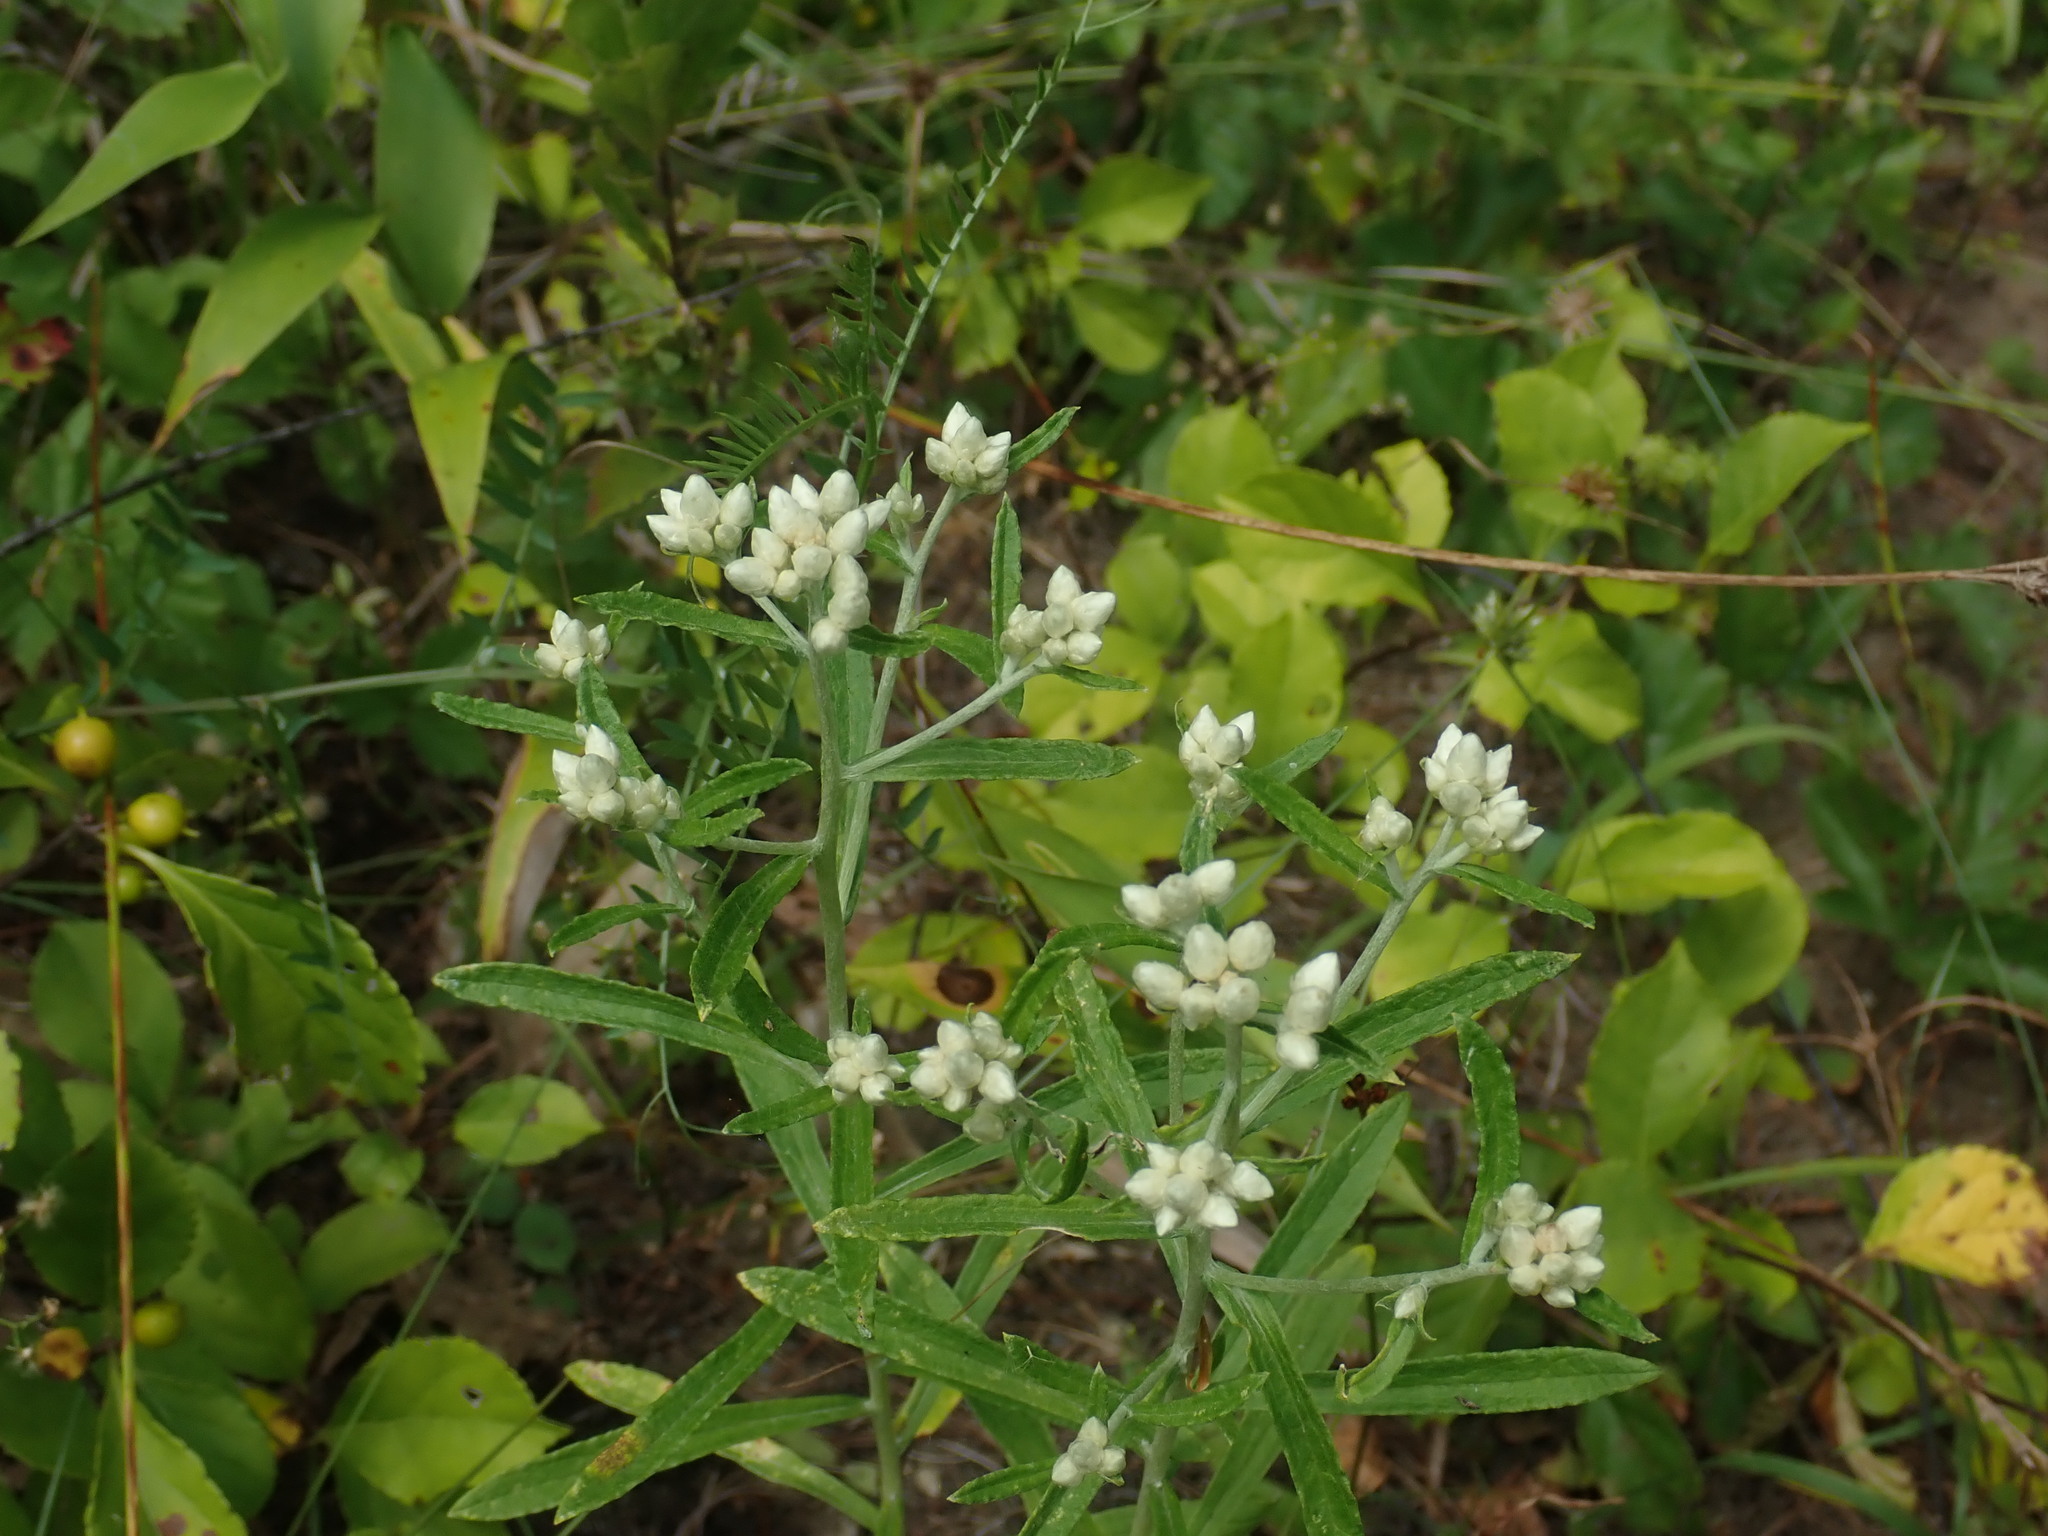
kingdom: Plantae
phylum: Tracheophyta
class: Magnoliopsida
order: Asterales
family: Asteraceae
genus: Pseudognaphalium
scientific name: Pseudognaphalium obtusifolium
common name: Eastern rabbit-tobacco
